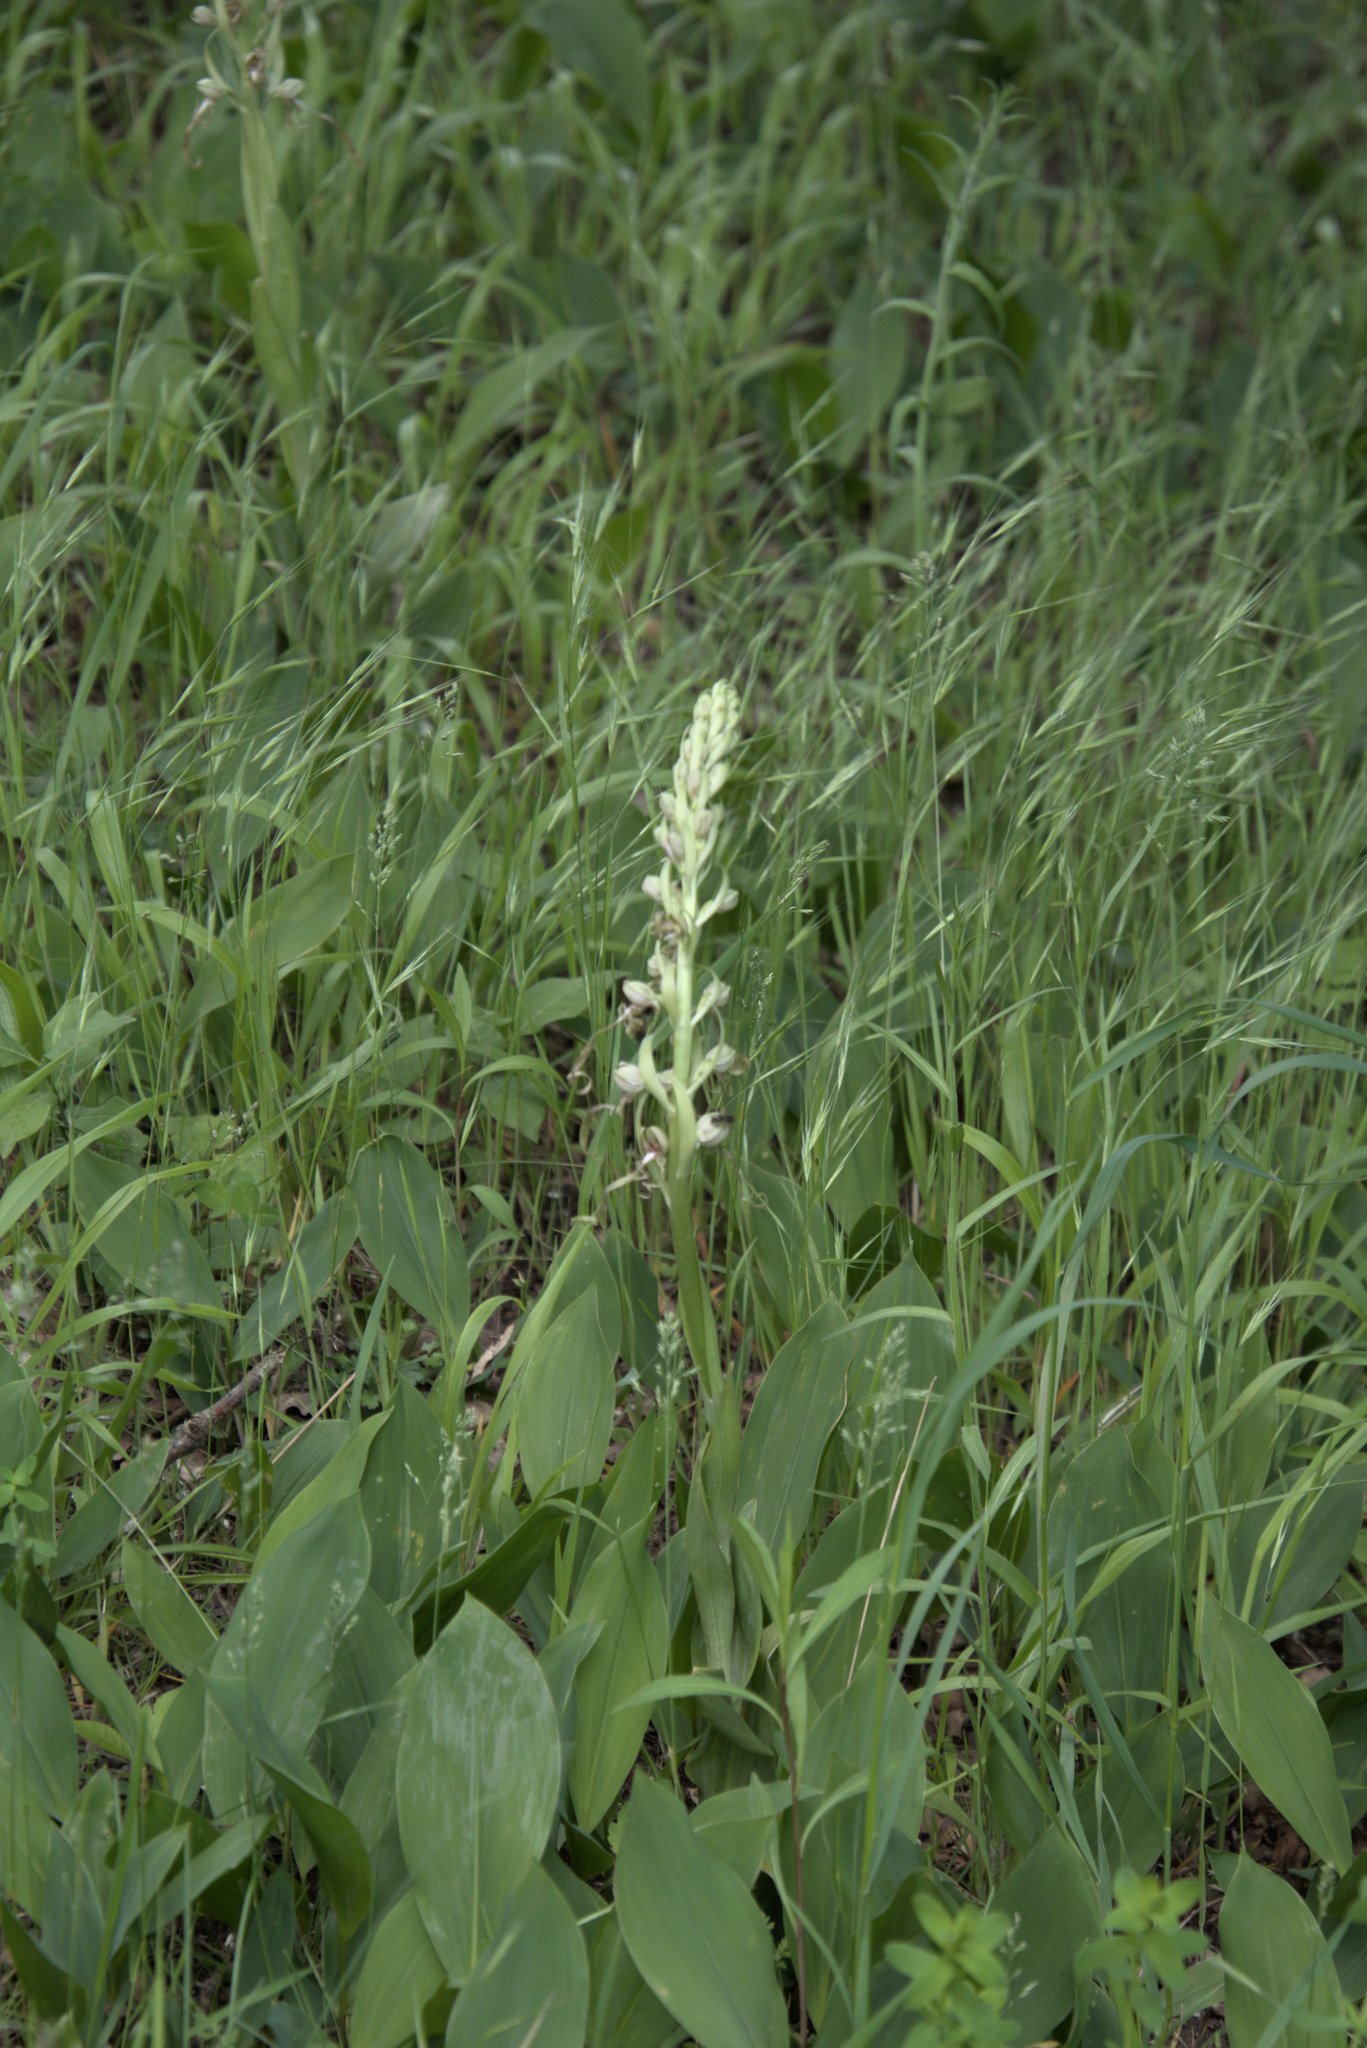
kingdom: Plantae
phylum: Tracheophyta
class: Liliopsida
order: Asparagales
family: Orchidaceae
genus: Himantoglossum
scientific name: Himantoglossum hircinum
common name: Lizard orchid
